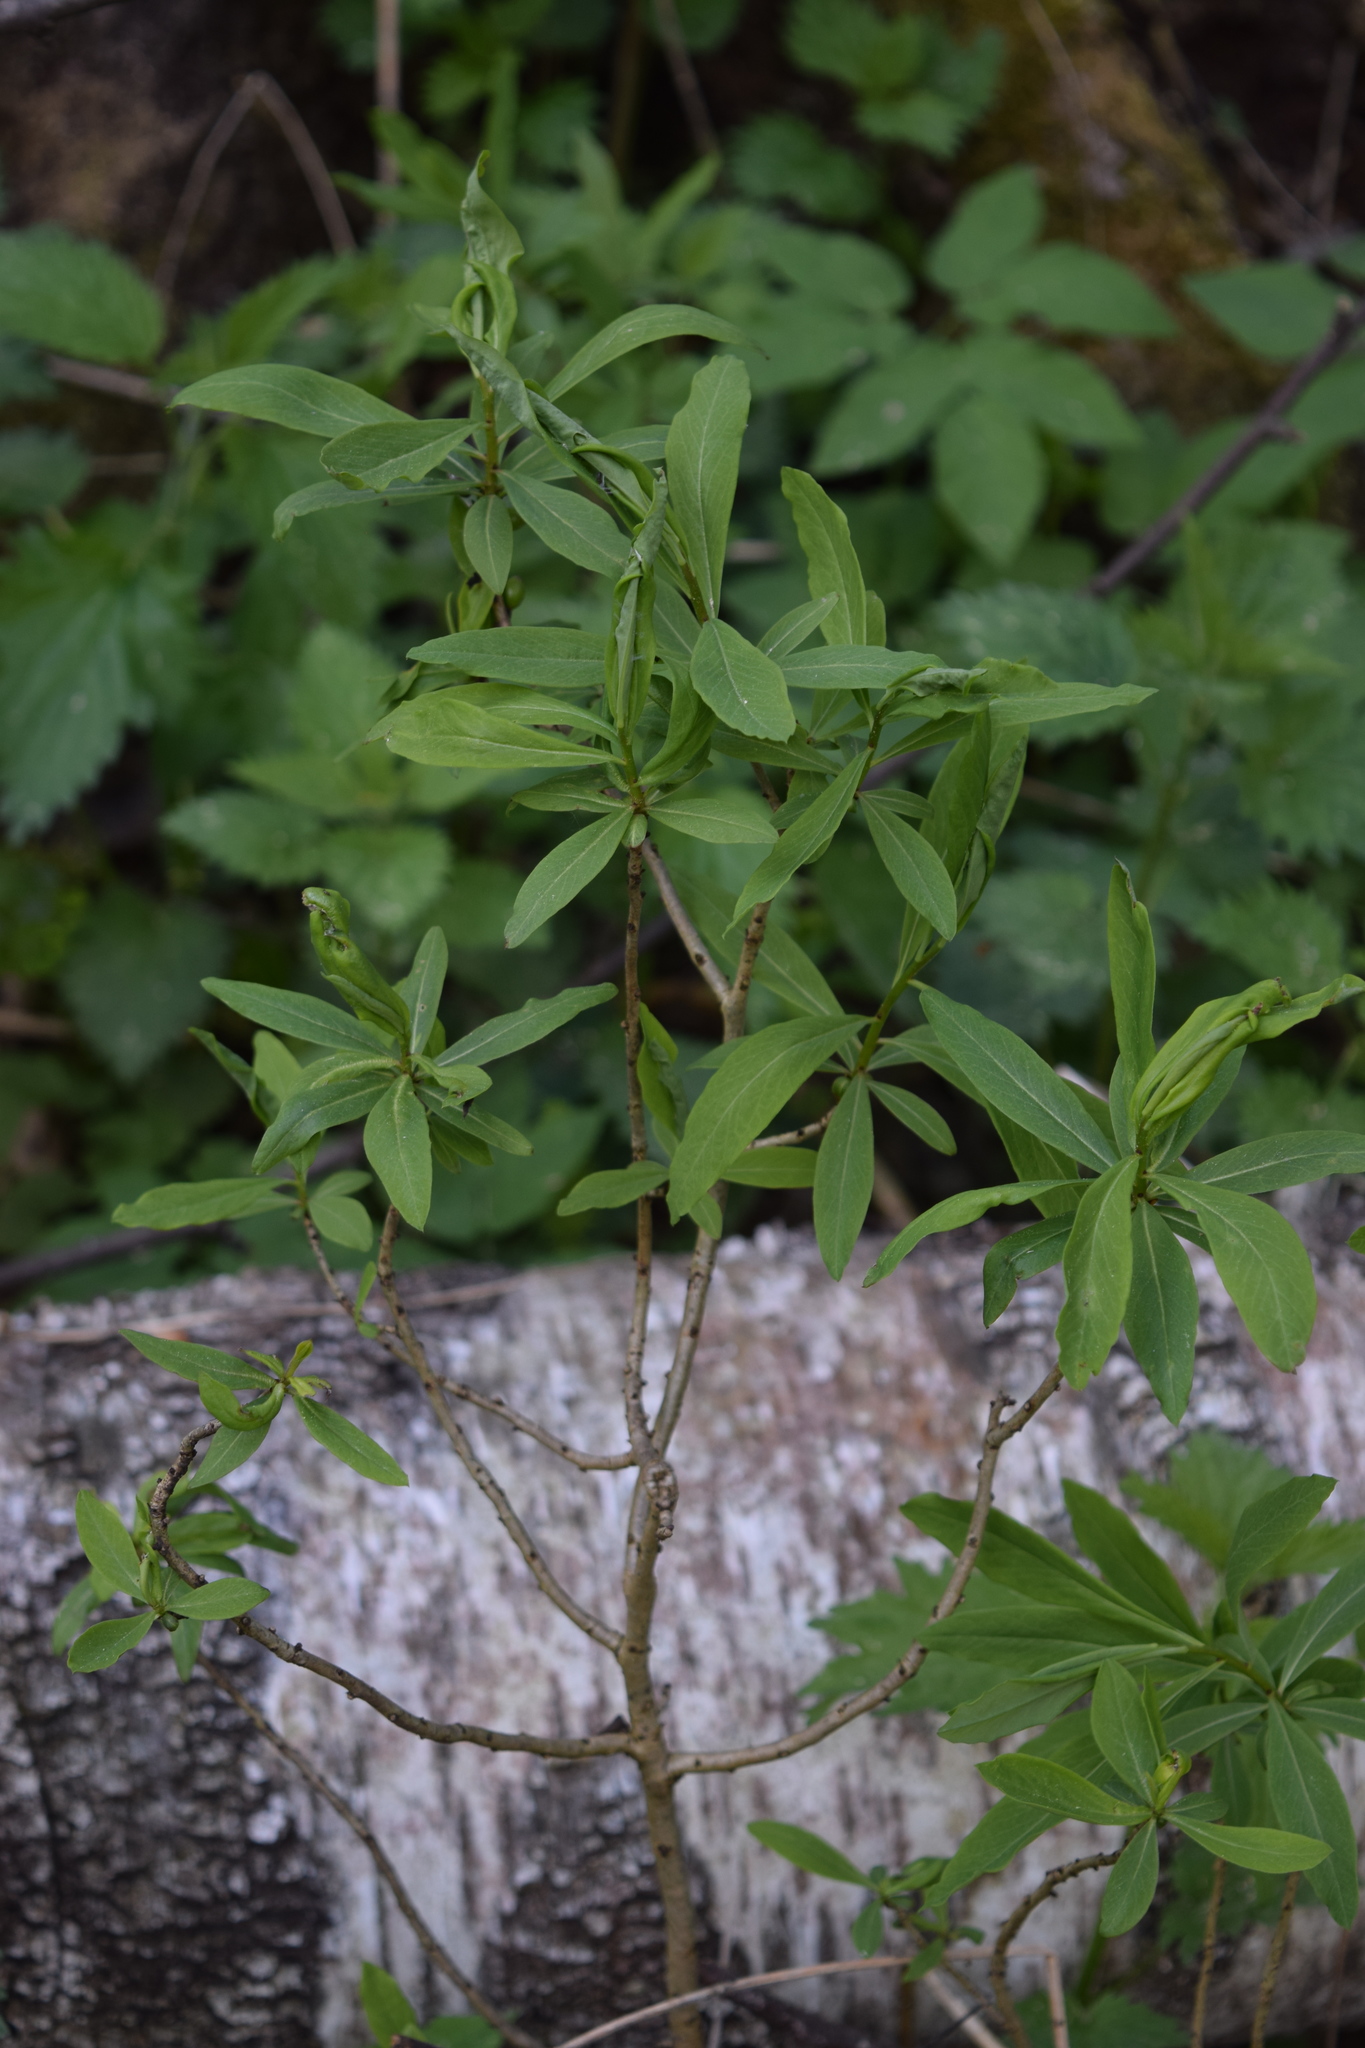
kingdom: Plantae
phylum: Tracheophyta
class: Magnoliopsida
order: Malvales
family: Thymelaeaceae
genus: Daphne
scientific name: Daphne mezereum
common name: Mezereon
